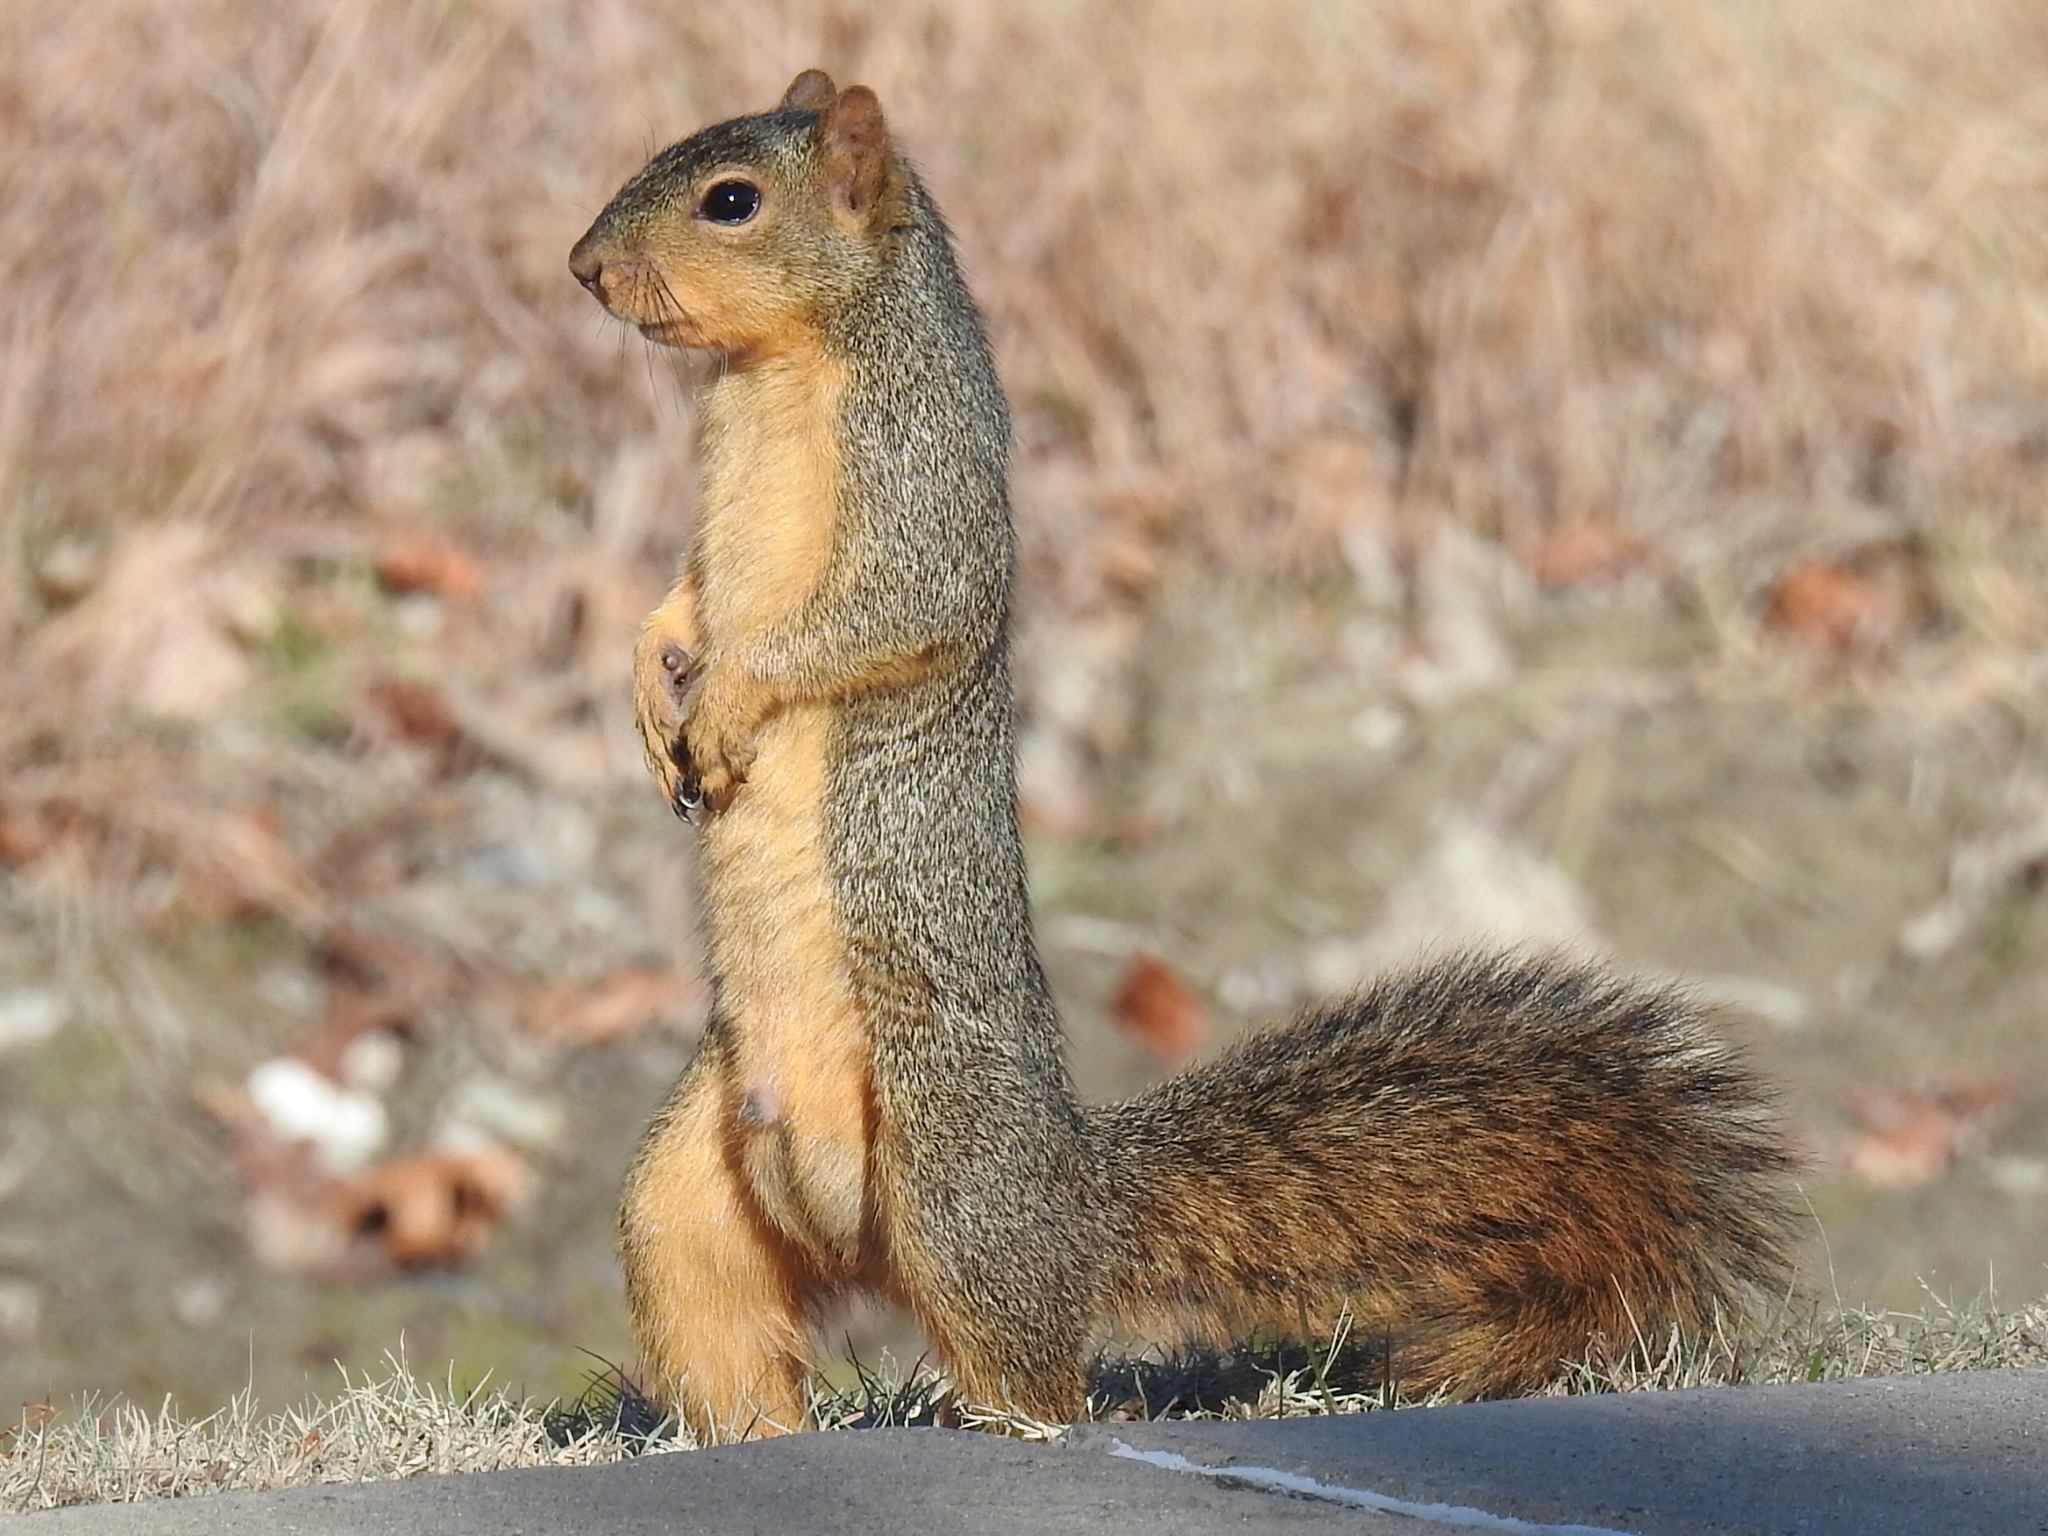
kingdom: Animalia
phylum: Chordata
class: Mammalia
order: Rodentia
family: Sciuridae
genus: Sciurus
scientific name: Sciurus niger
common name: Fox squirrel
